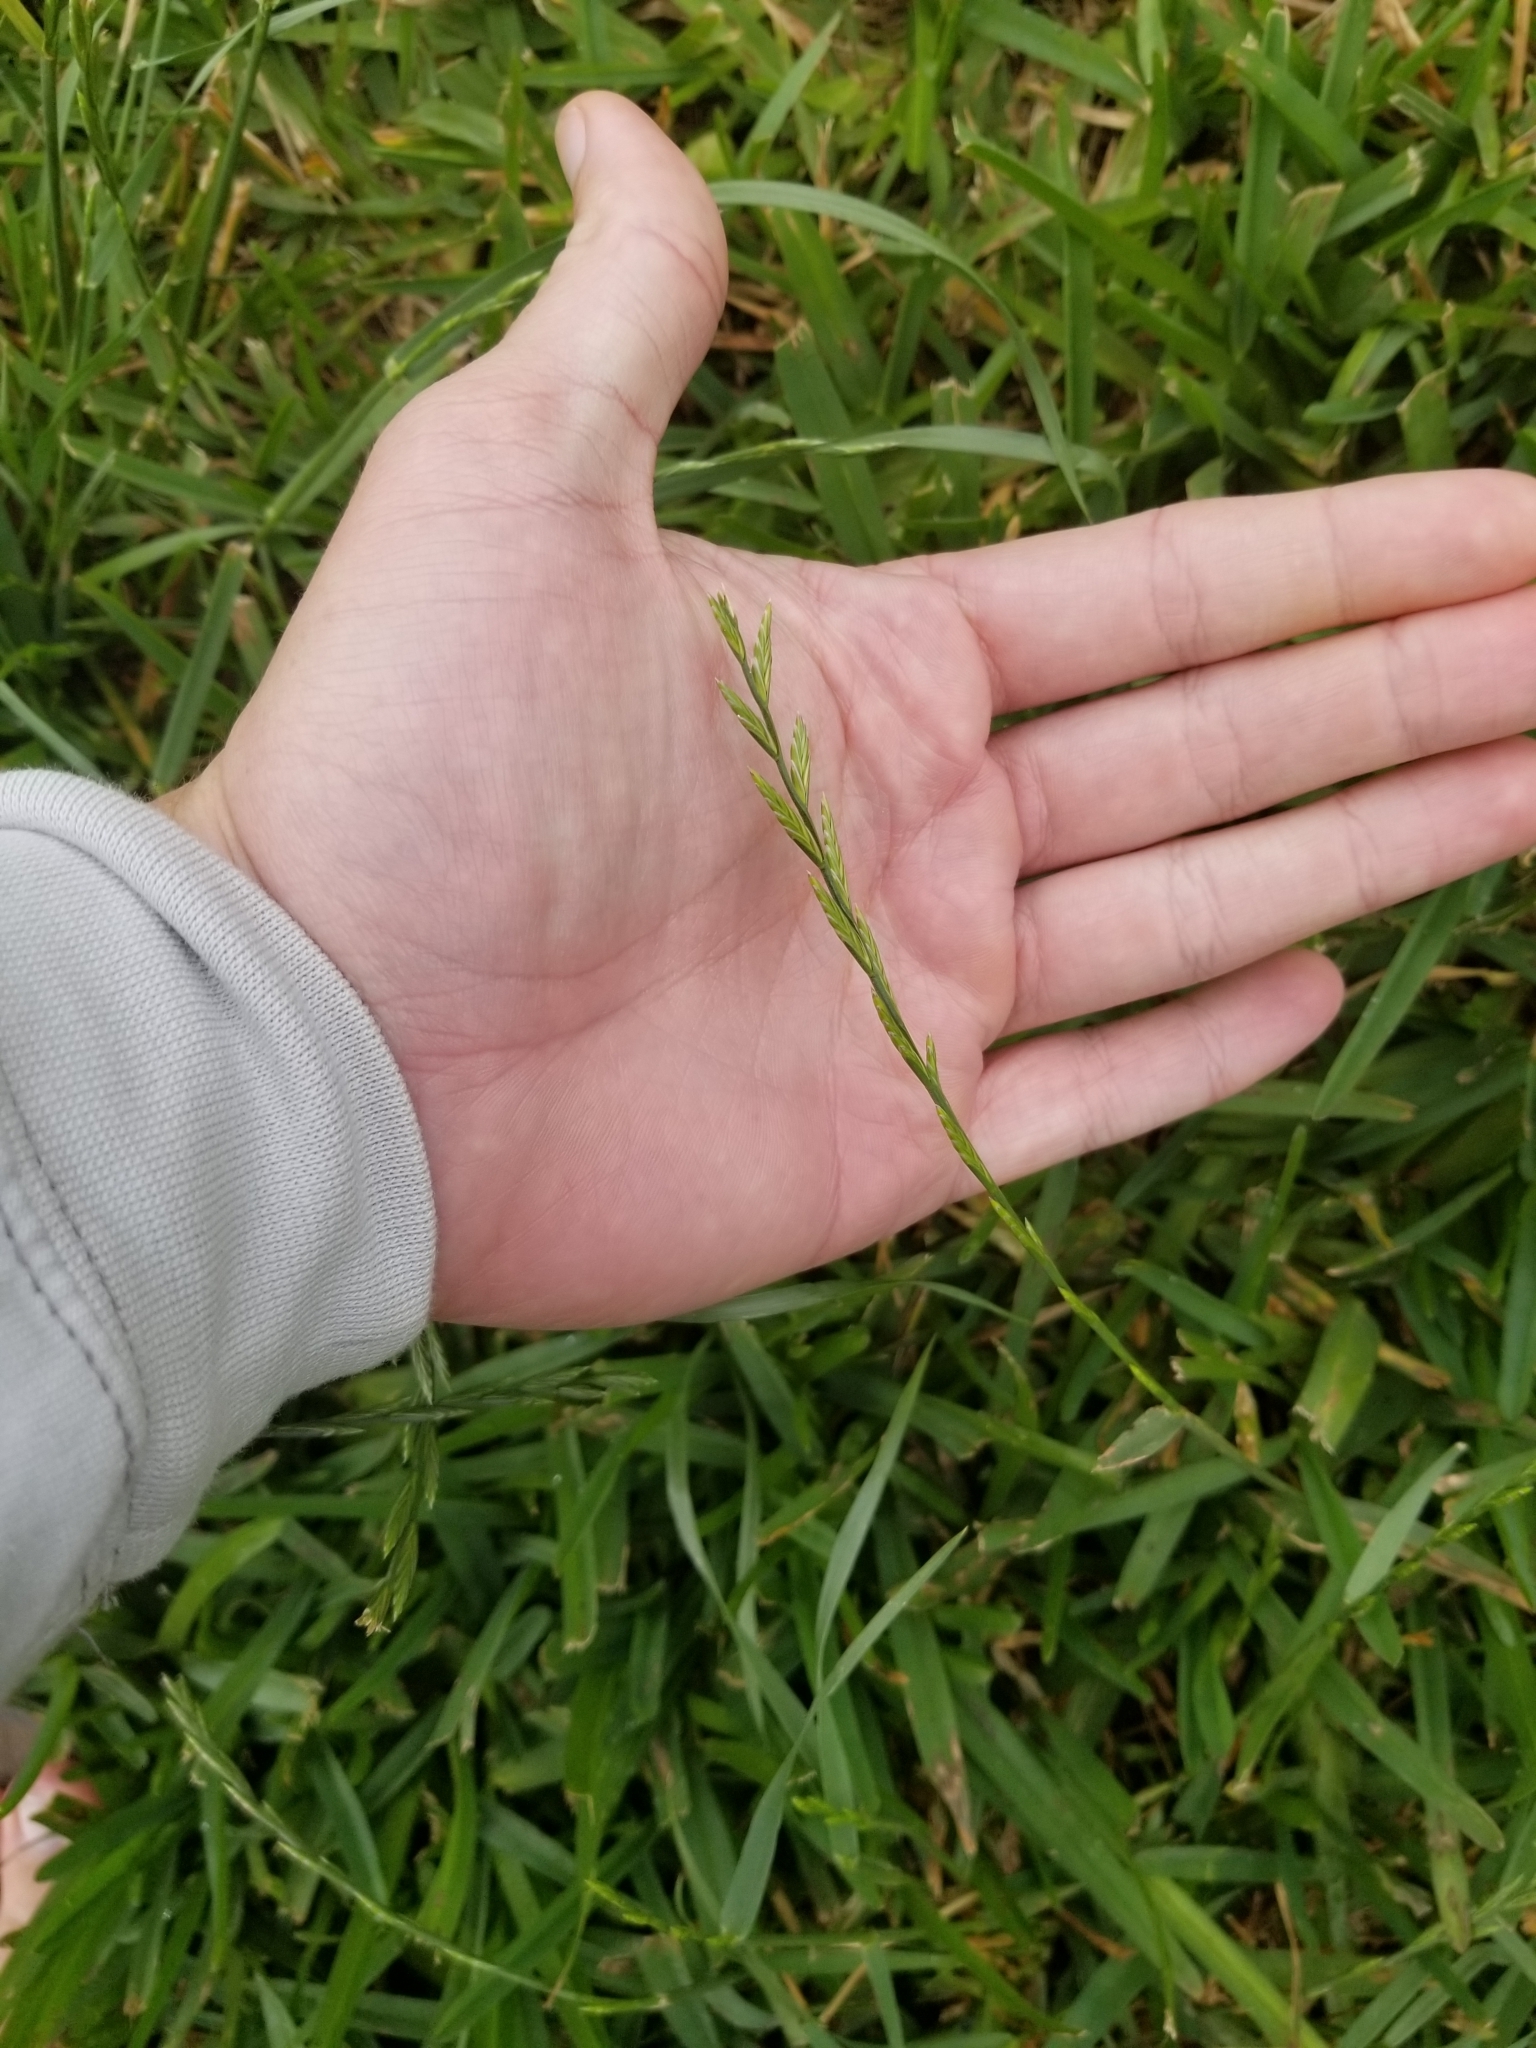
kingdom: Plantae
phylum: Tracheophyta
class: Liliopsida
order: Poales
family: Poaceae
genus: Lolium
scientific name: Lolium perenne
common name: Perennial ryegrass
